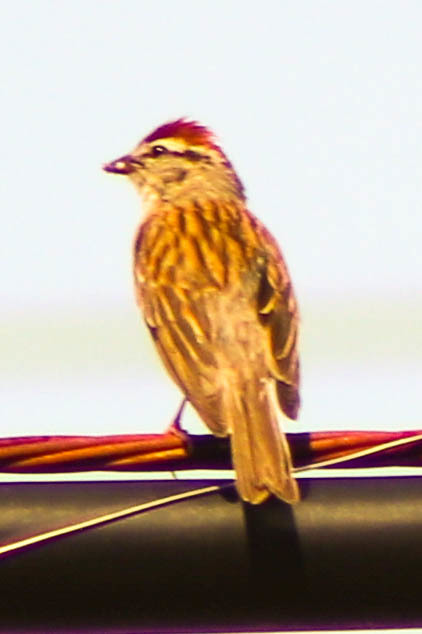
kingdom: Animalia
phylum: Chordata
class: Aves
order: Passeriformes
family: Passerellidae
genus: Spizella
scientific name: Spizella passerina
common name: Chipping sparrow
